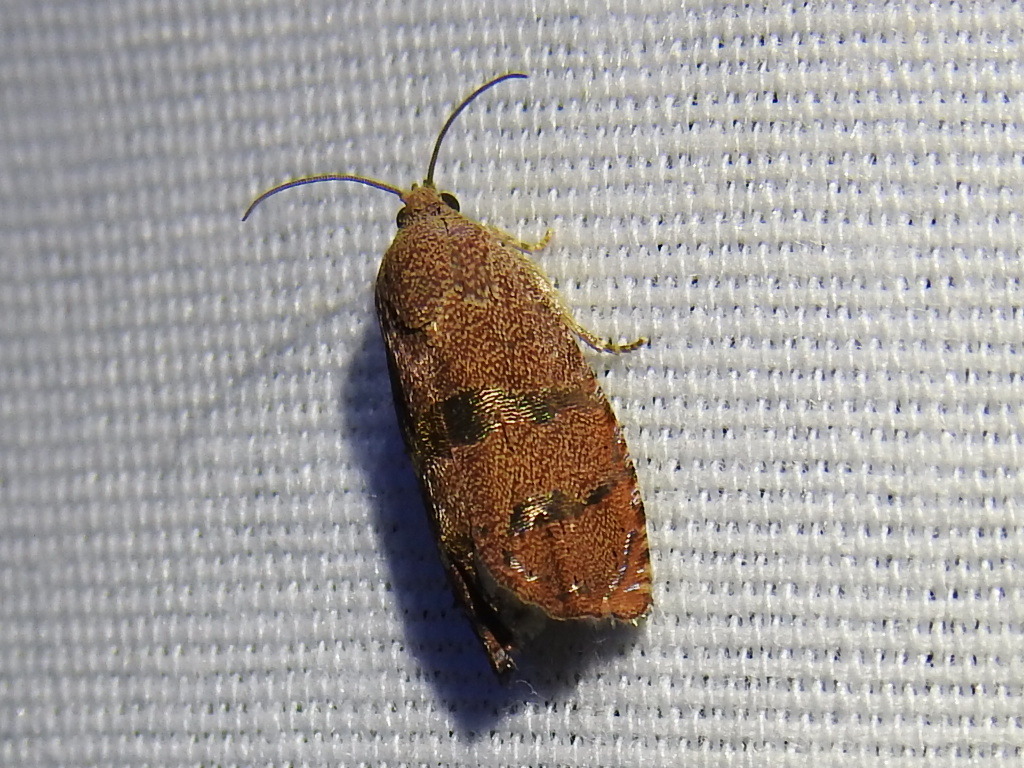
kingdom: Animalia
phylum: Arthropoda
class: Insecta
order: Lepidoptera
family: Tortricidae
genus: Cydia
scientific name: Cydia latiferreana
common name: Filbertworm moth
